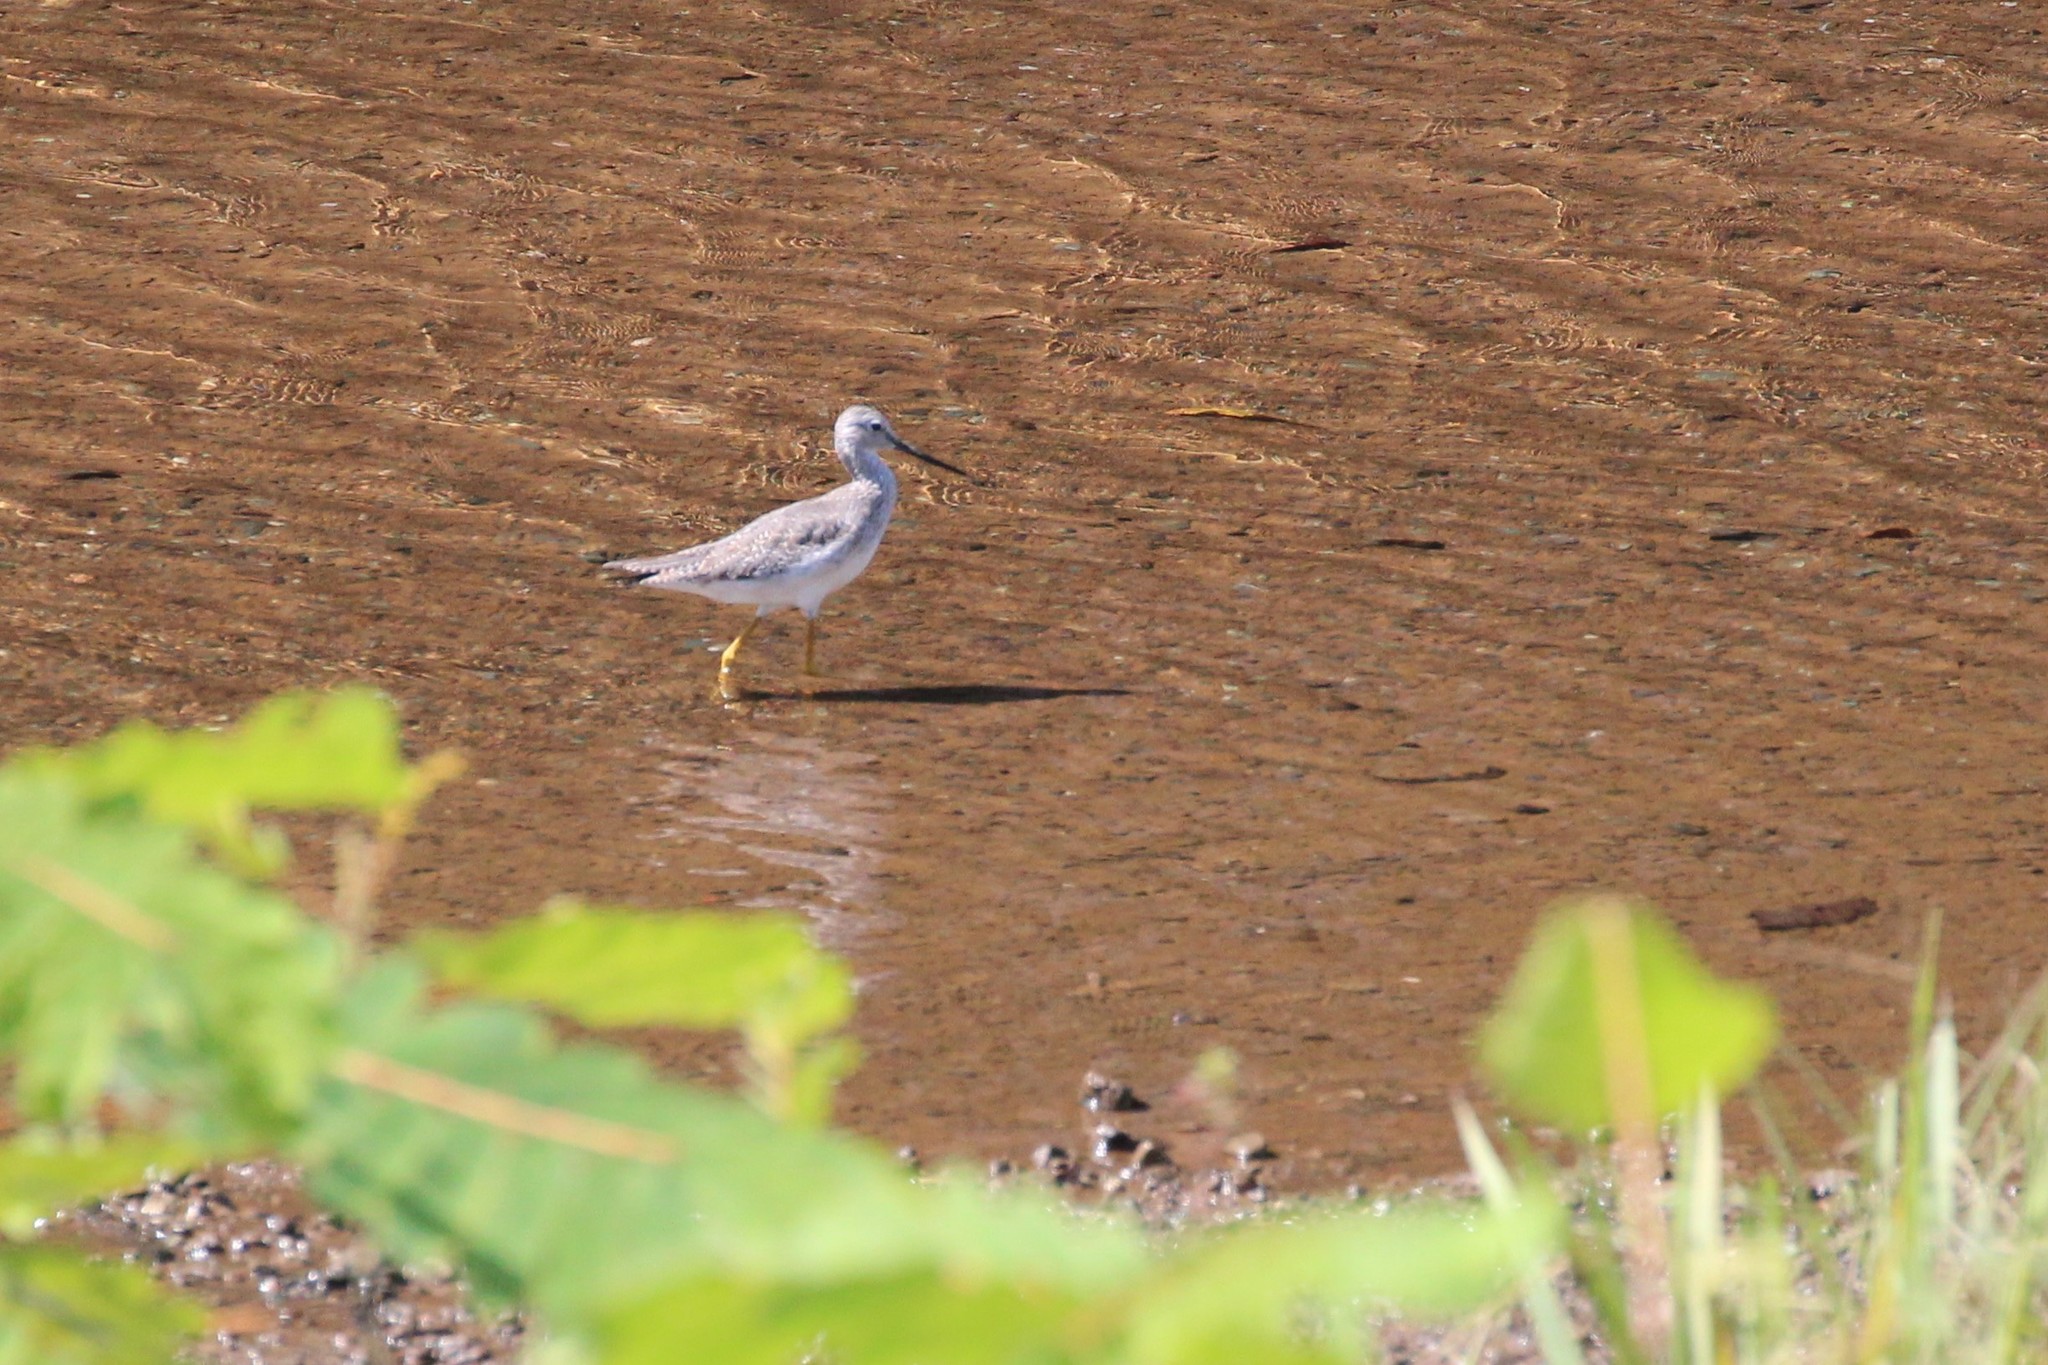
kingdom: Animalia
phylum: Chordata
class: Aves
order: Charadriiformes
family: Scolopacidae
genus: Tringa
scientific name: Tringa melanoleuca
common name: Greater yellowlegs
